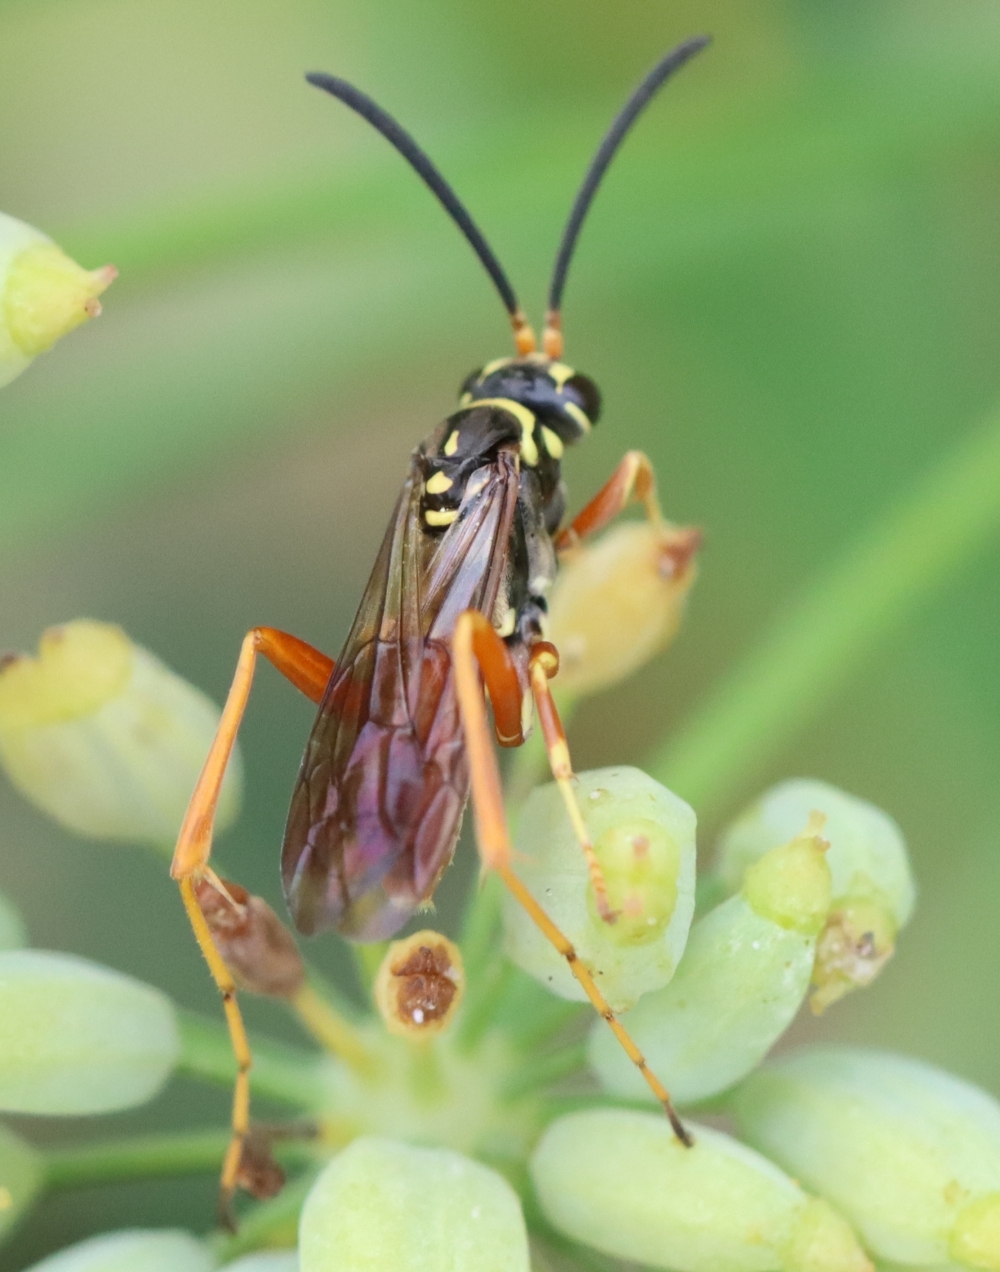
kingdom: Animalia
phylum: Arthropoda
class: Insecta
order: Hymenoptera
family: Pompilidae
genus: Ceropales
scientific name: Ceropales robinsonii
